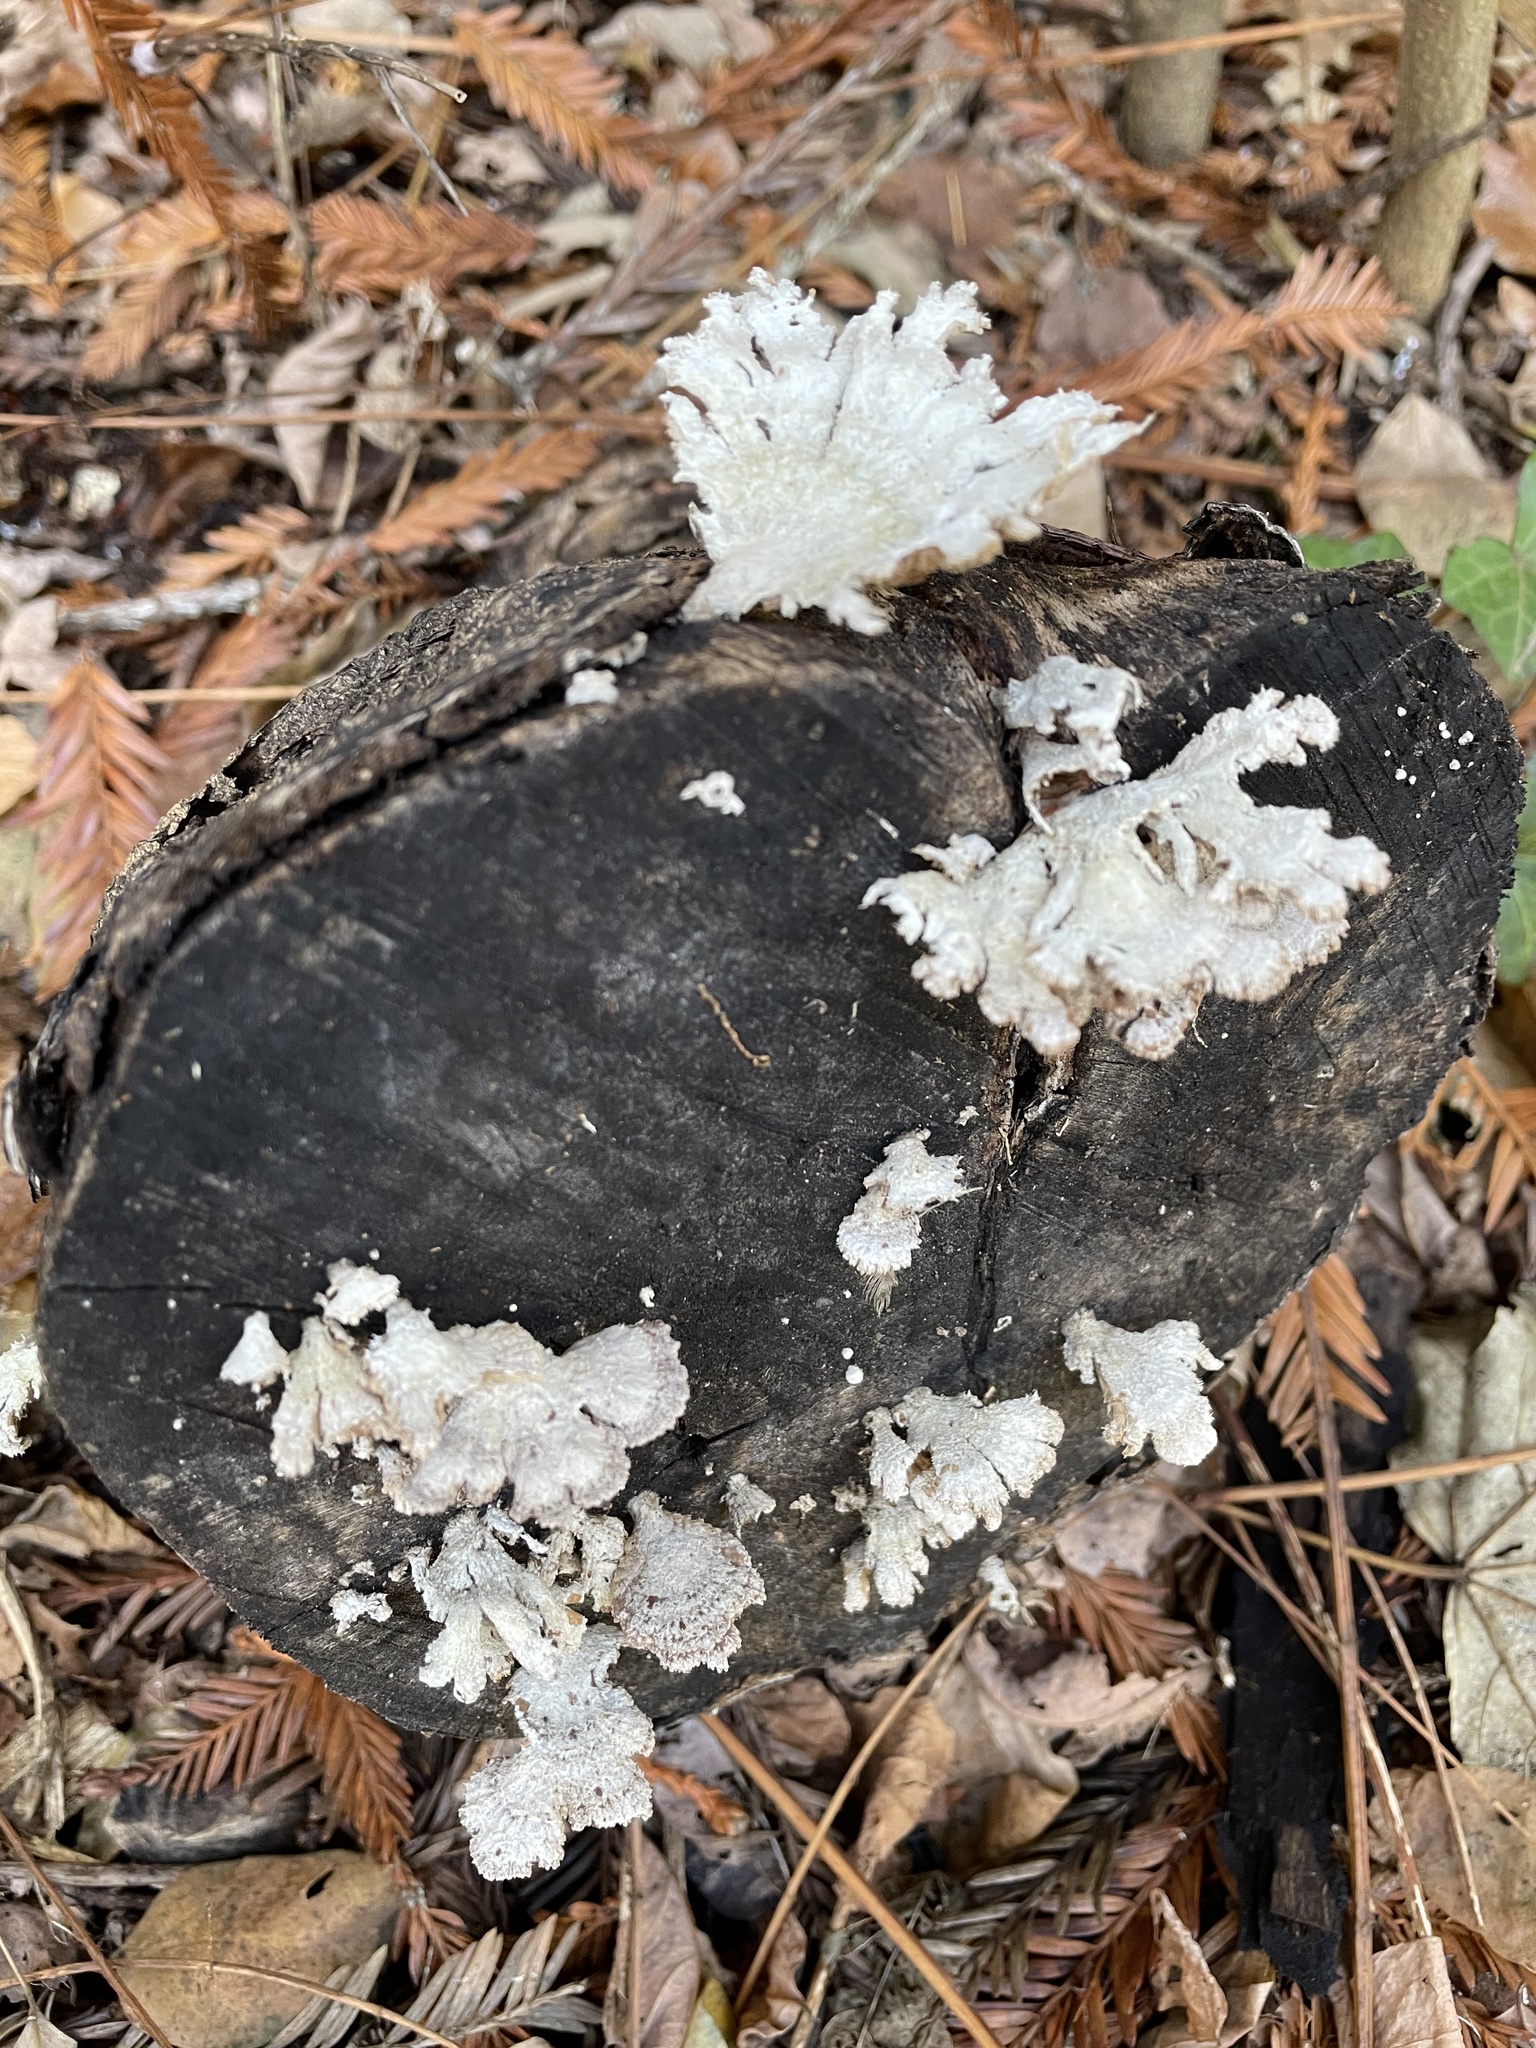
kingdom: Fungi
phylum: Basidiomycota
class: Agaricomycetes
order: Agaricales
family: Schizophyllaceae
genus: Schizophyllum
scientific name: Schizophyllum commune
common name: Common porecrust
